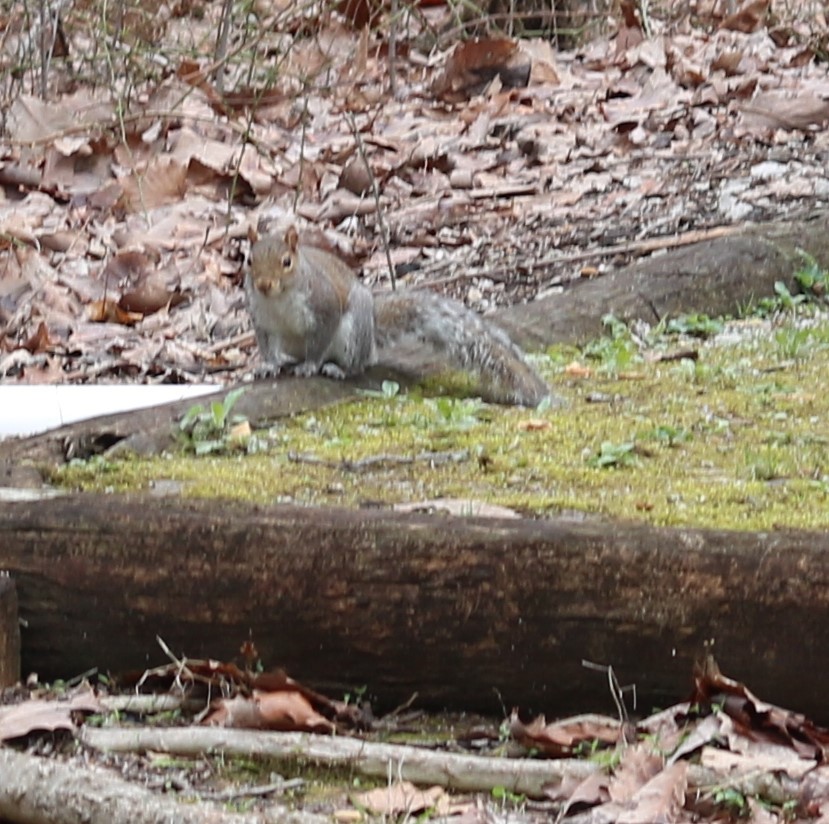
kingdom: Animalia
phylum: Chordata
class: Mammalia
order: Rodentia
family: Sciuridae
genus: Sciurus
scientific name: Sciurus carolinensis
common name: Eastern gray squirrel
